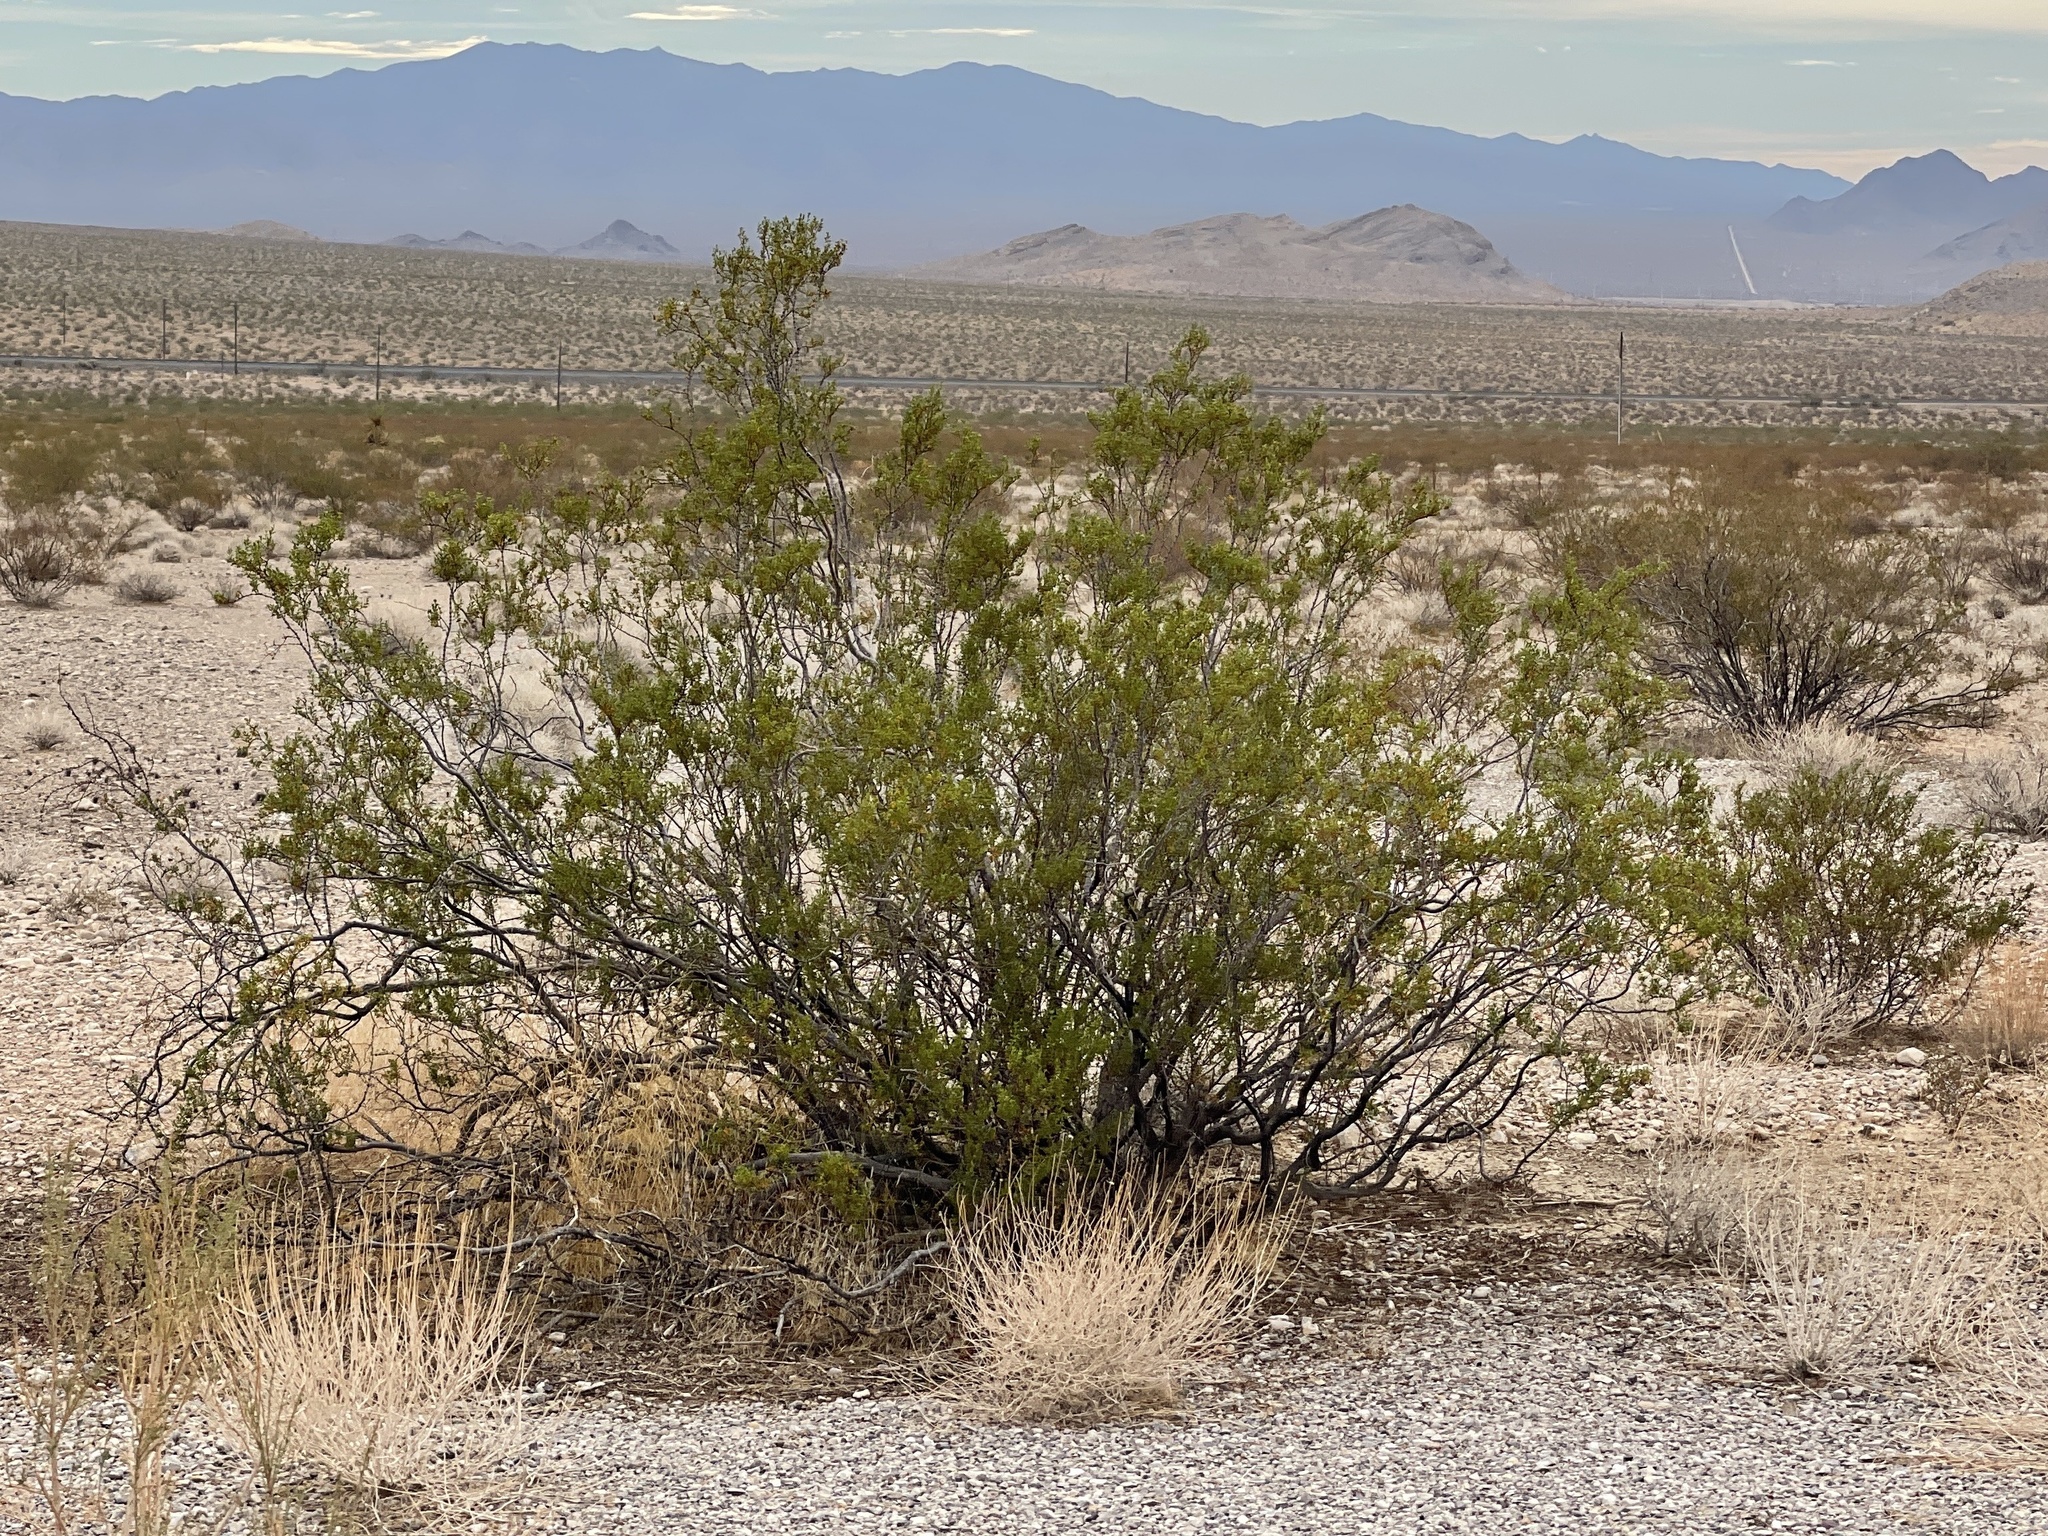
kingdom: Plantae
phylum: Tracheophyta
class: Magnoliopsida
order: Zygophyllales
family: Zygophyllaceae
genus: Larrea
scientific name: Larrea tridentata
